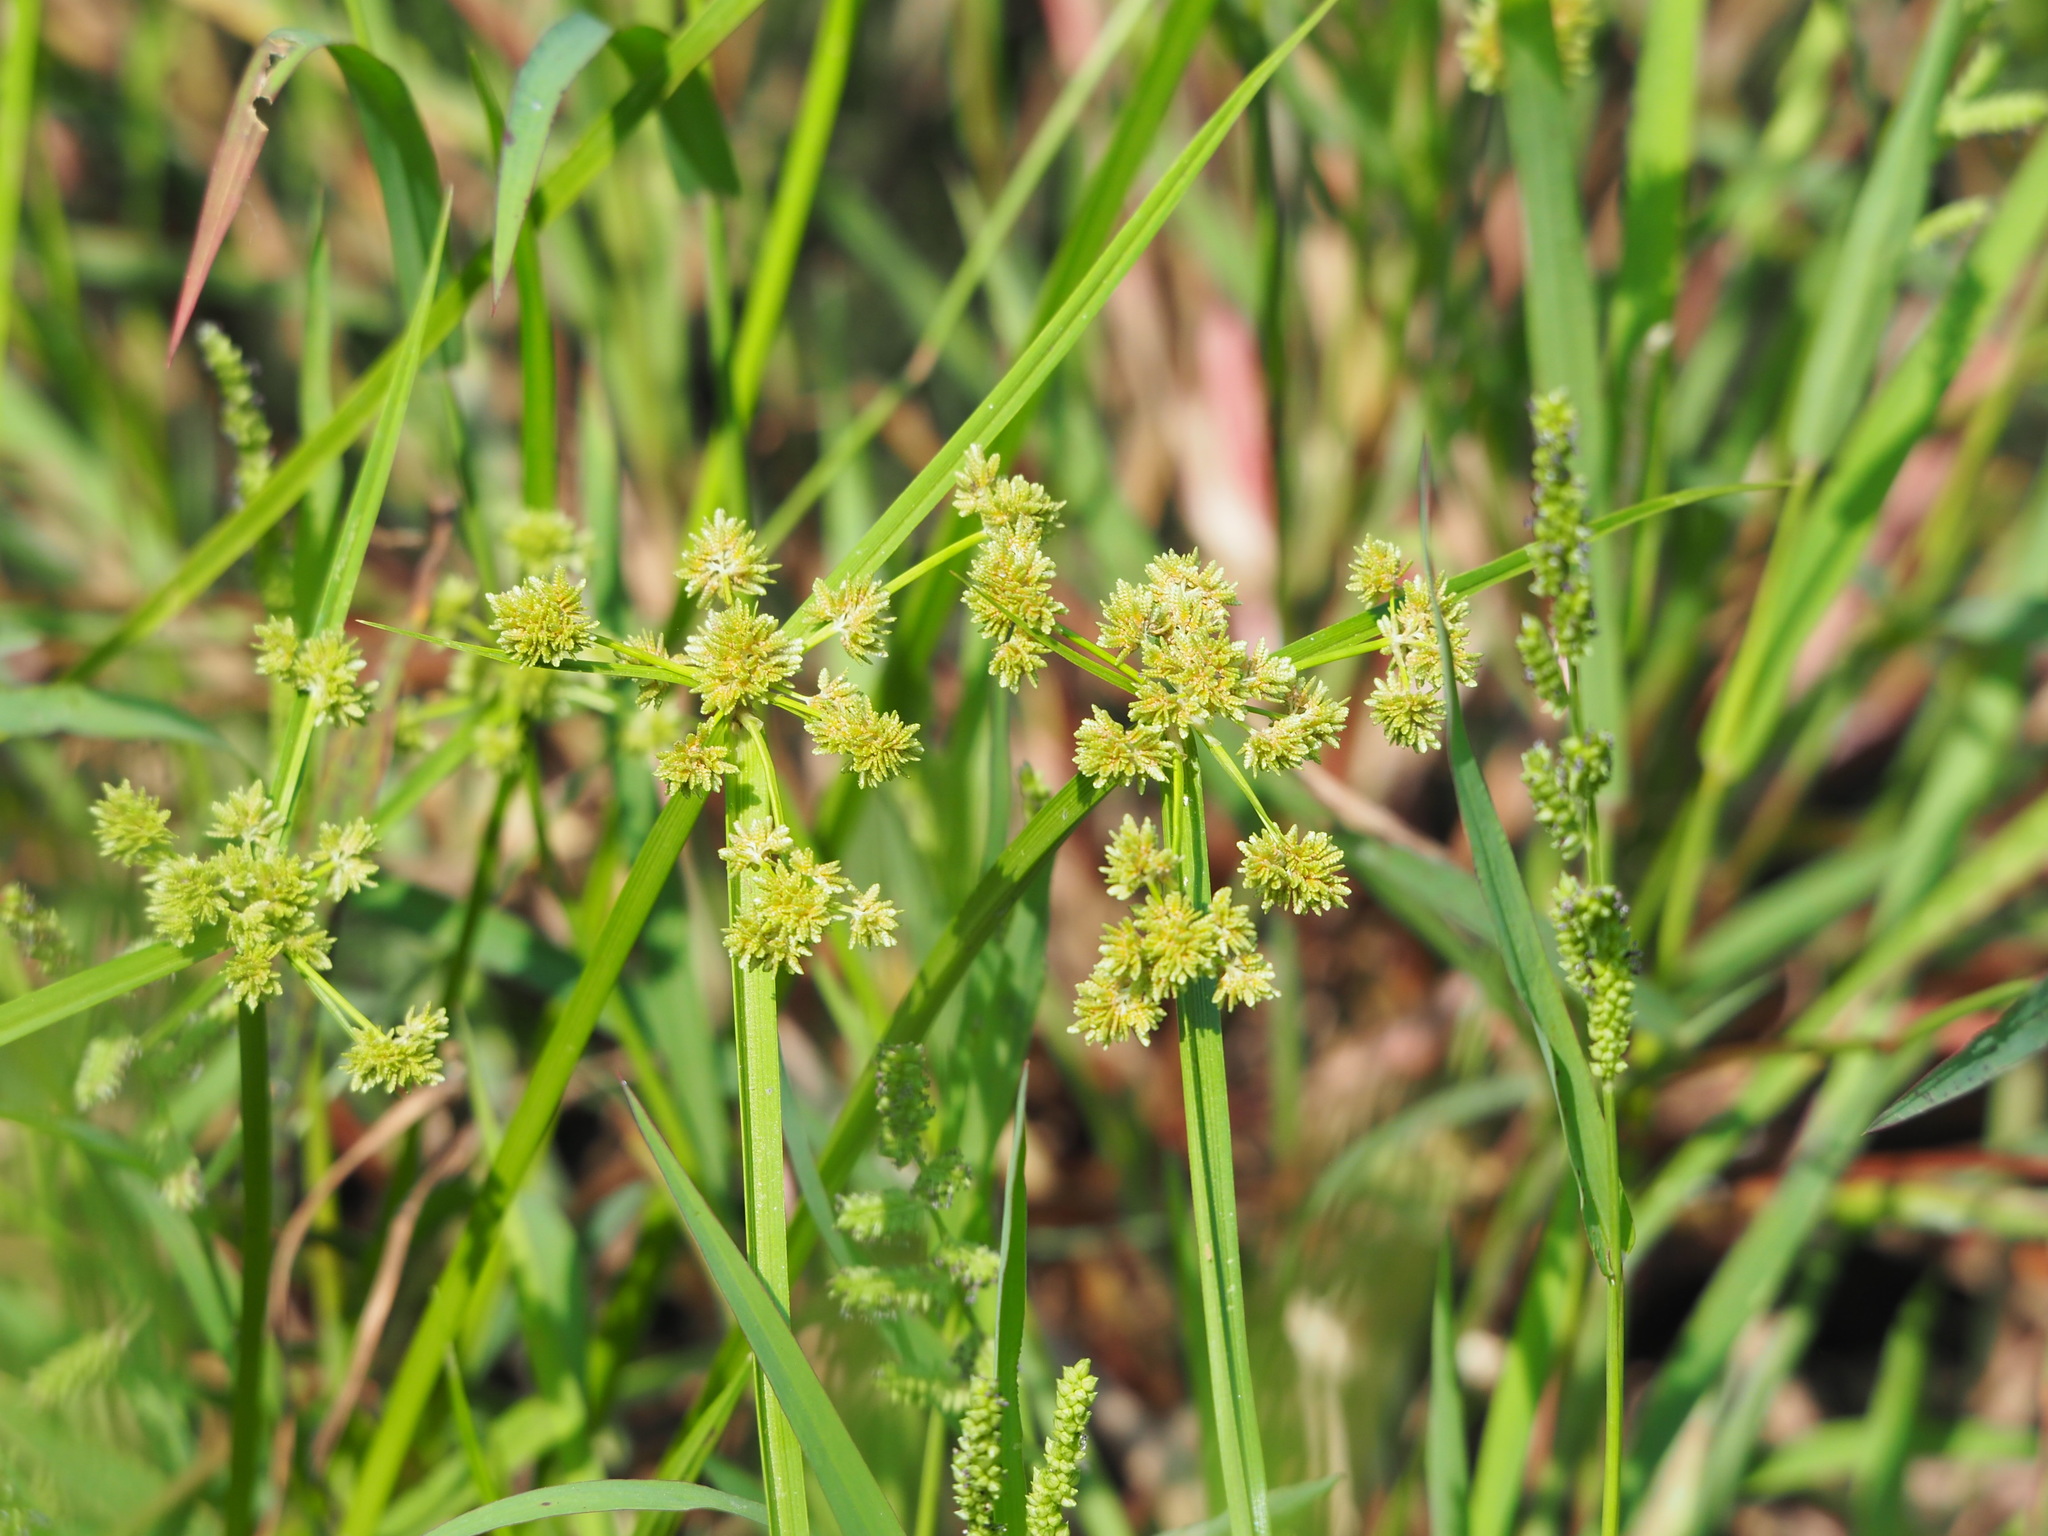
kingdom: Plantae
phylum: Tracheophyta
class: Liliopsida
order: Poales
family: Cyperaceae
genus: Cyperus
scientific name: Cyperus difformis
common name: Variable flatsedge
